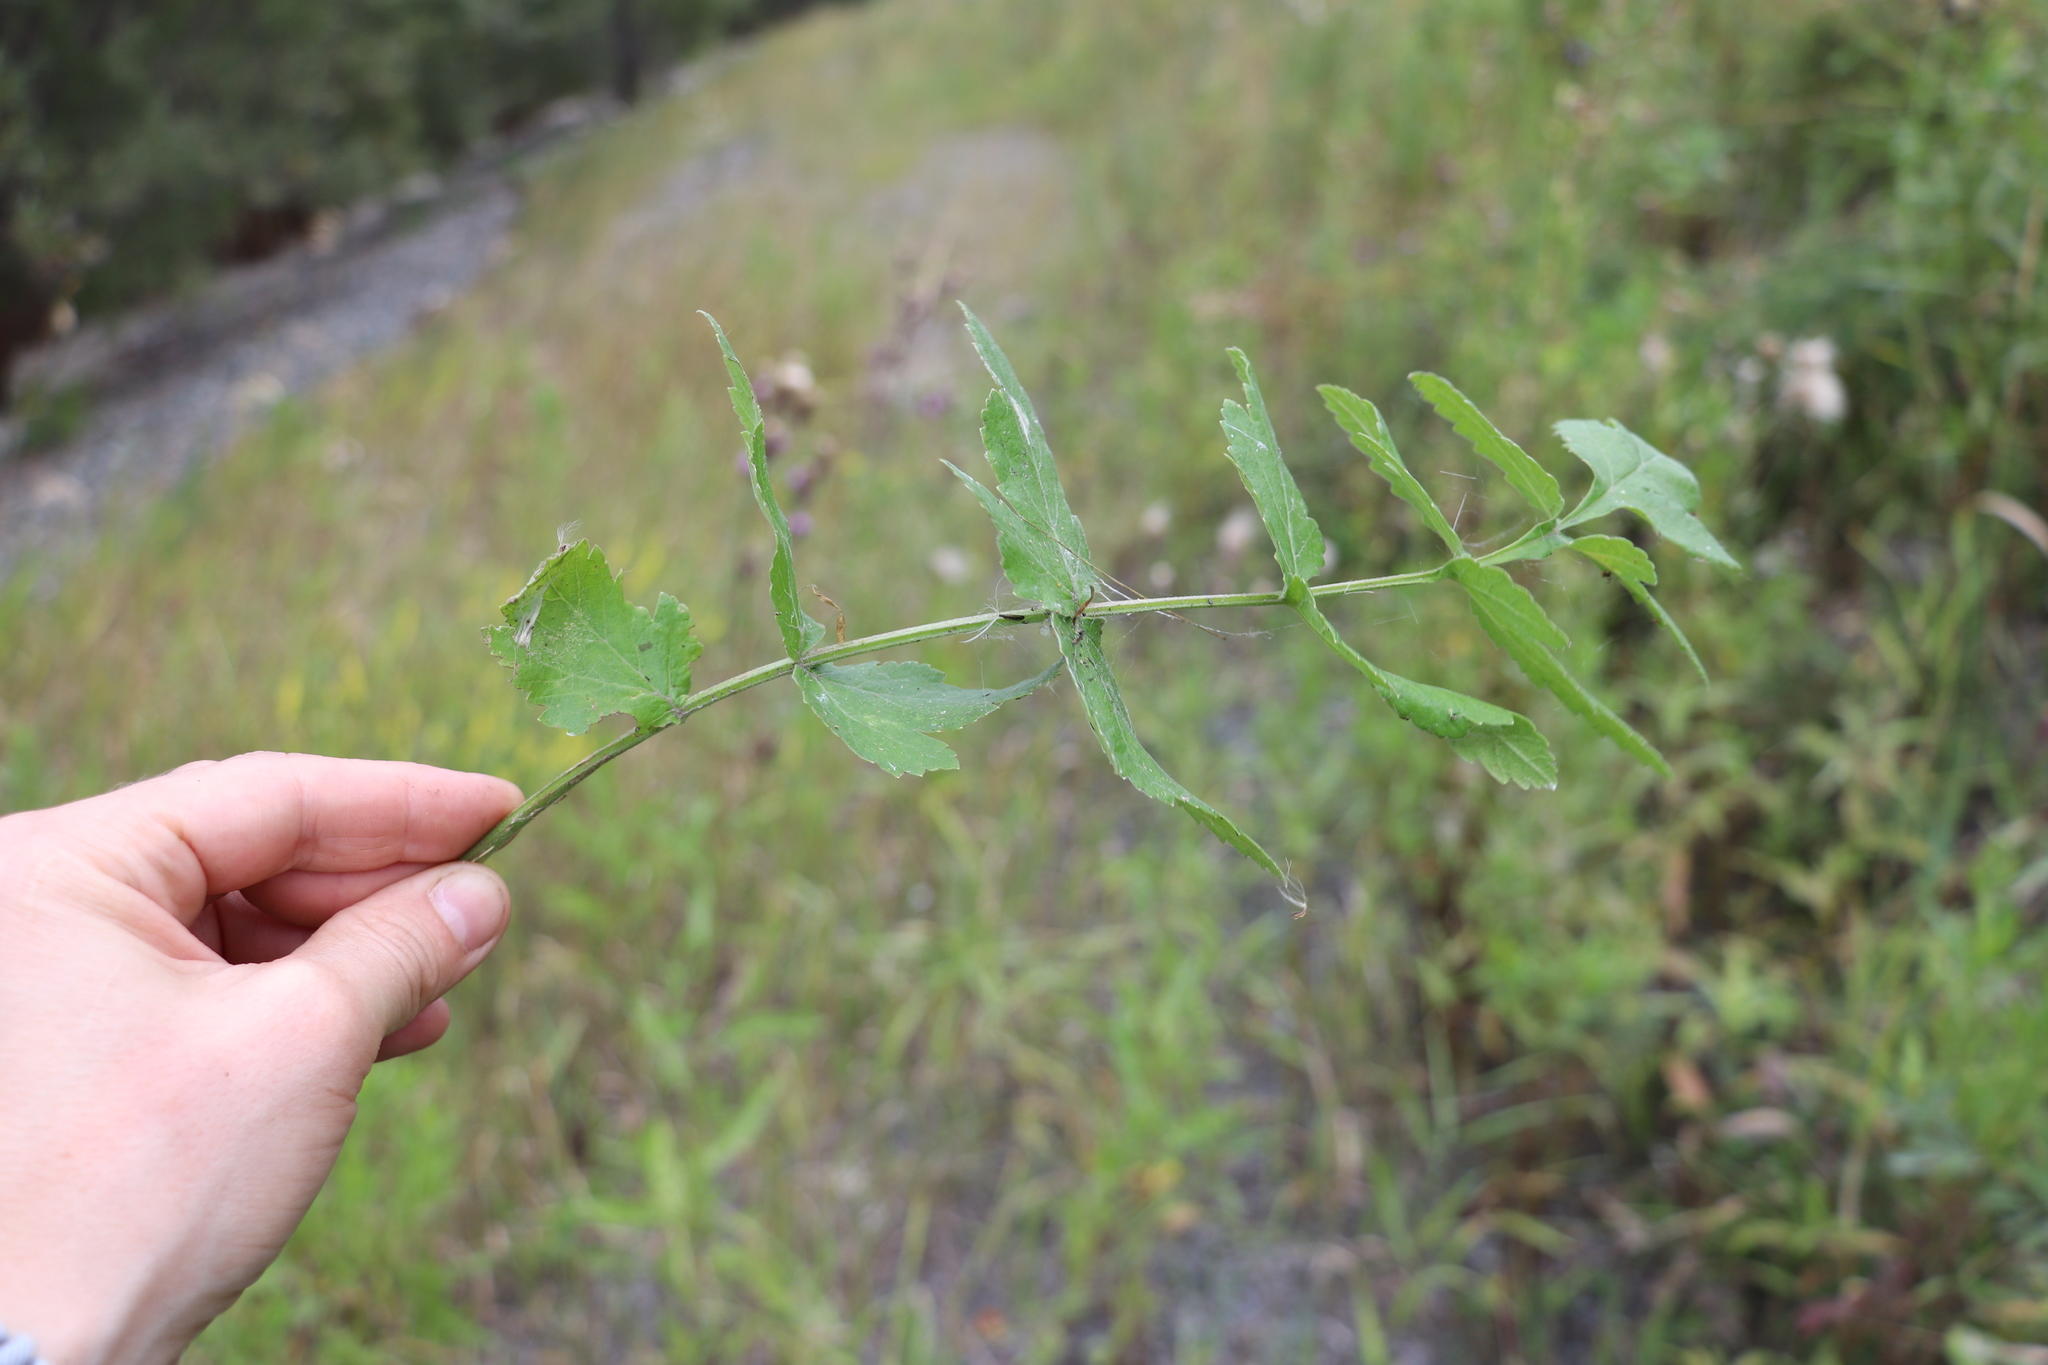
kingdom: Plantae
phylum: Tracheophyta
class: Magnoliopsida
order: Apiales
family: Apiaceae
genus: Pastinaca
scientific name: Pastinaca sativa
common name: Wild parsnip
